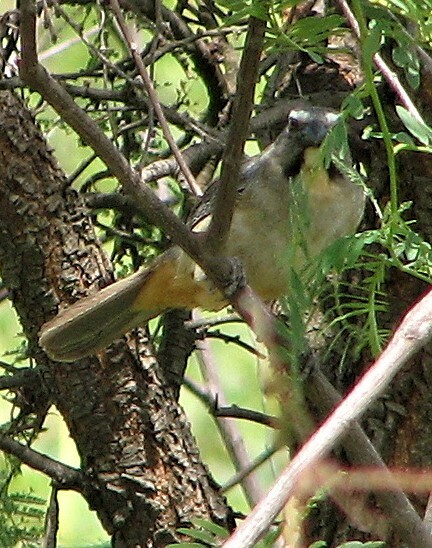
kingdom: Animalia
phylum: Chordata
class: Aves
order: Passeriformes
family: Thraupidae
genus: Saltator
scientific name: Saltator coerulescens
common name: Grayish saltator
